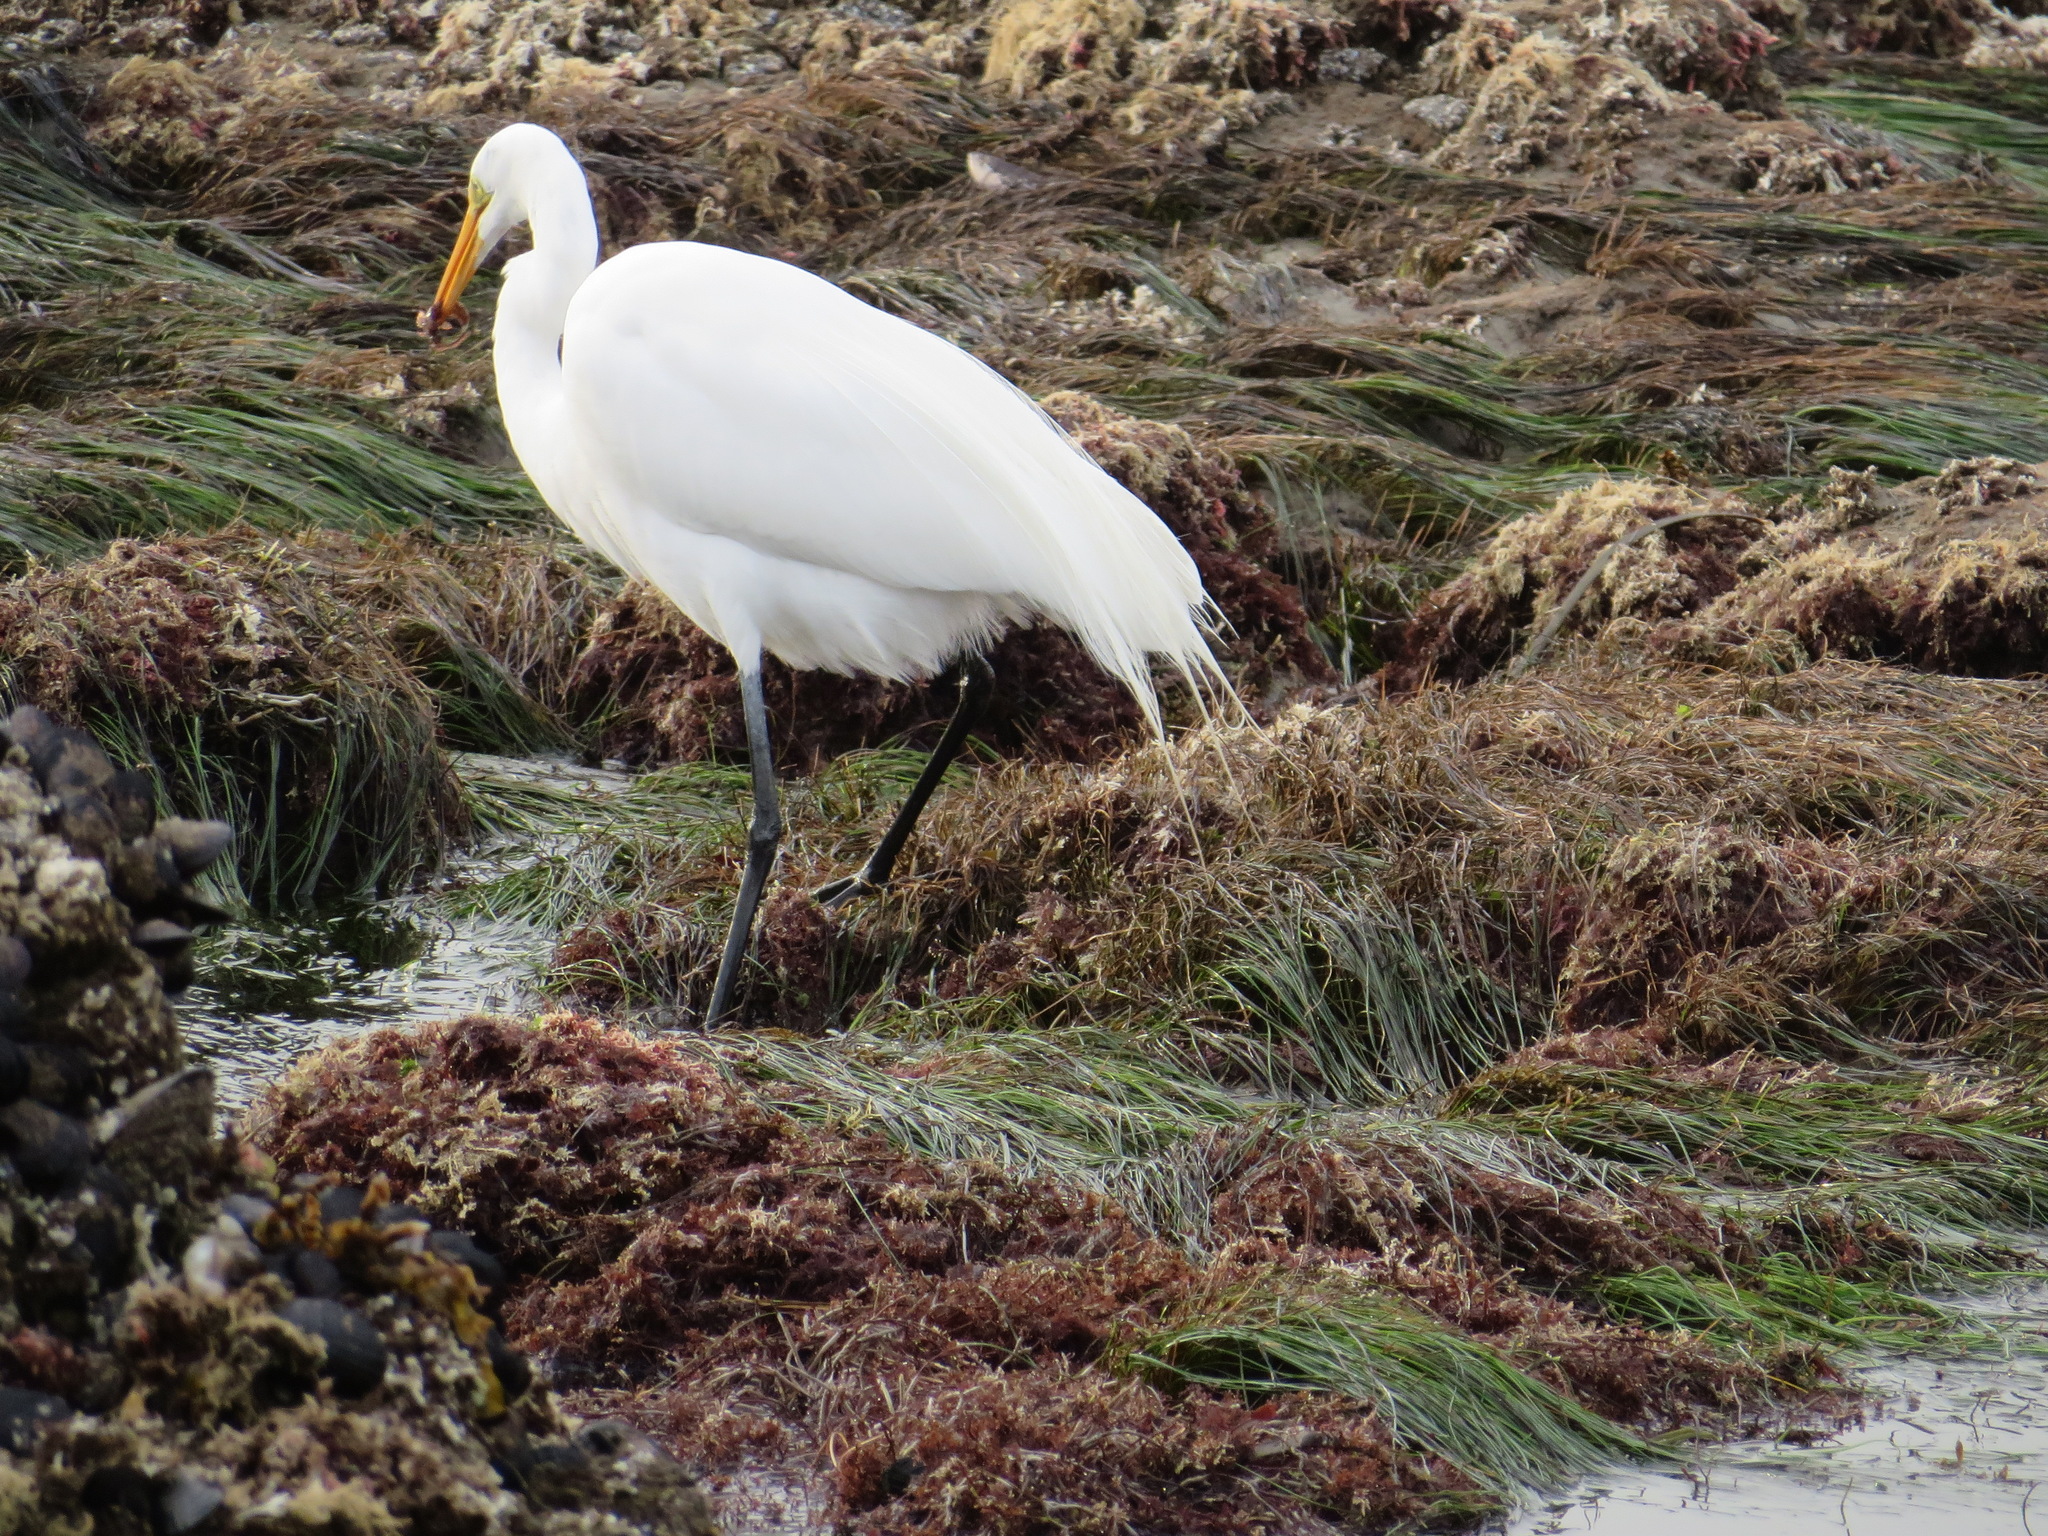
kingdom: Animalia
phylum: Chordata
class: Aves
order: Pelecaniformes
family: Ardeidae
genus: Ardea
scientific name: Ardea alba
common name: Great egret
